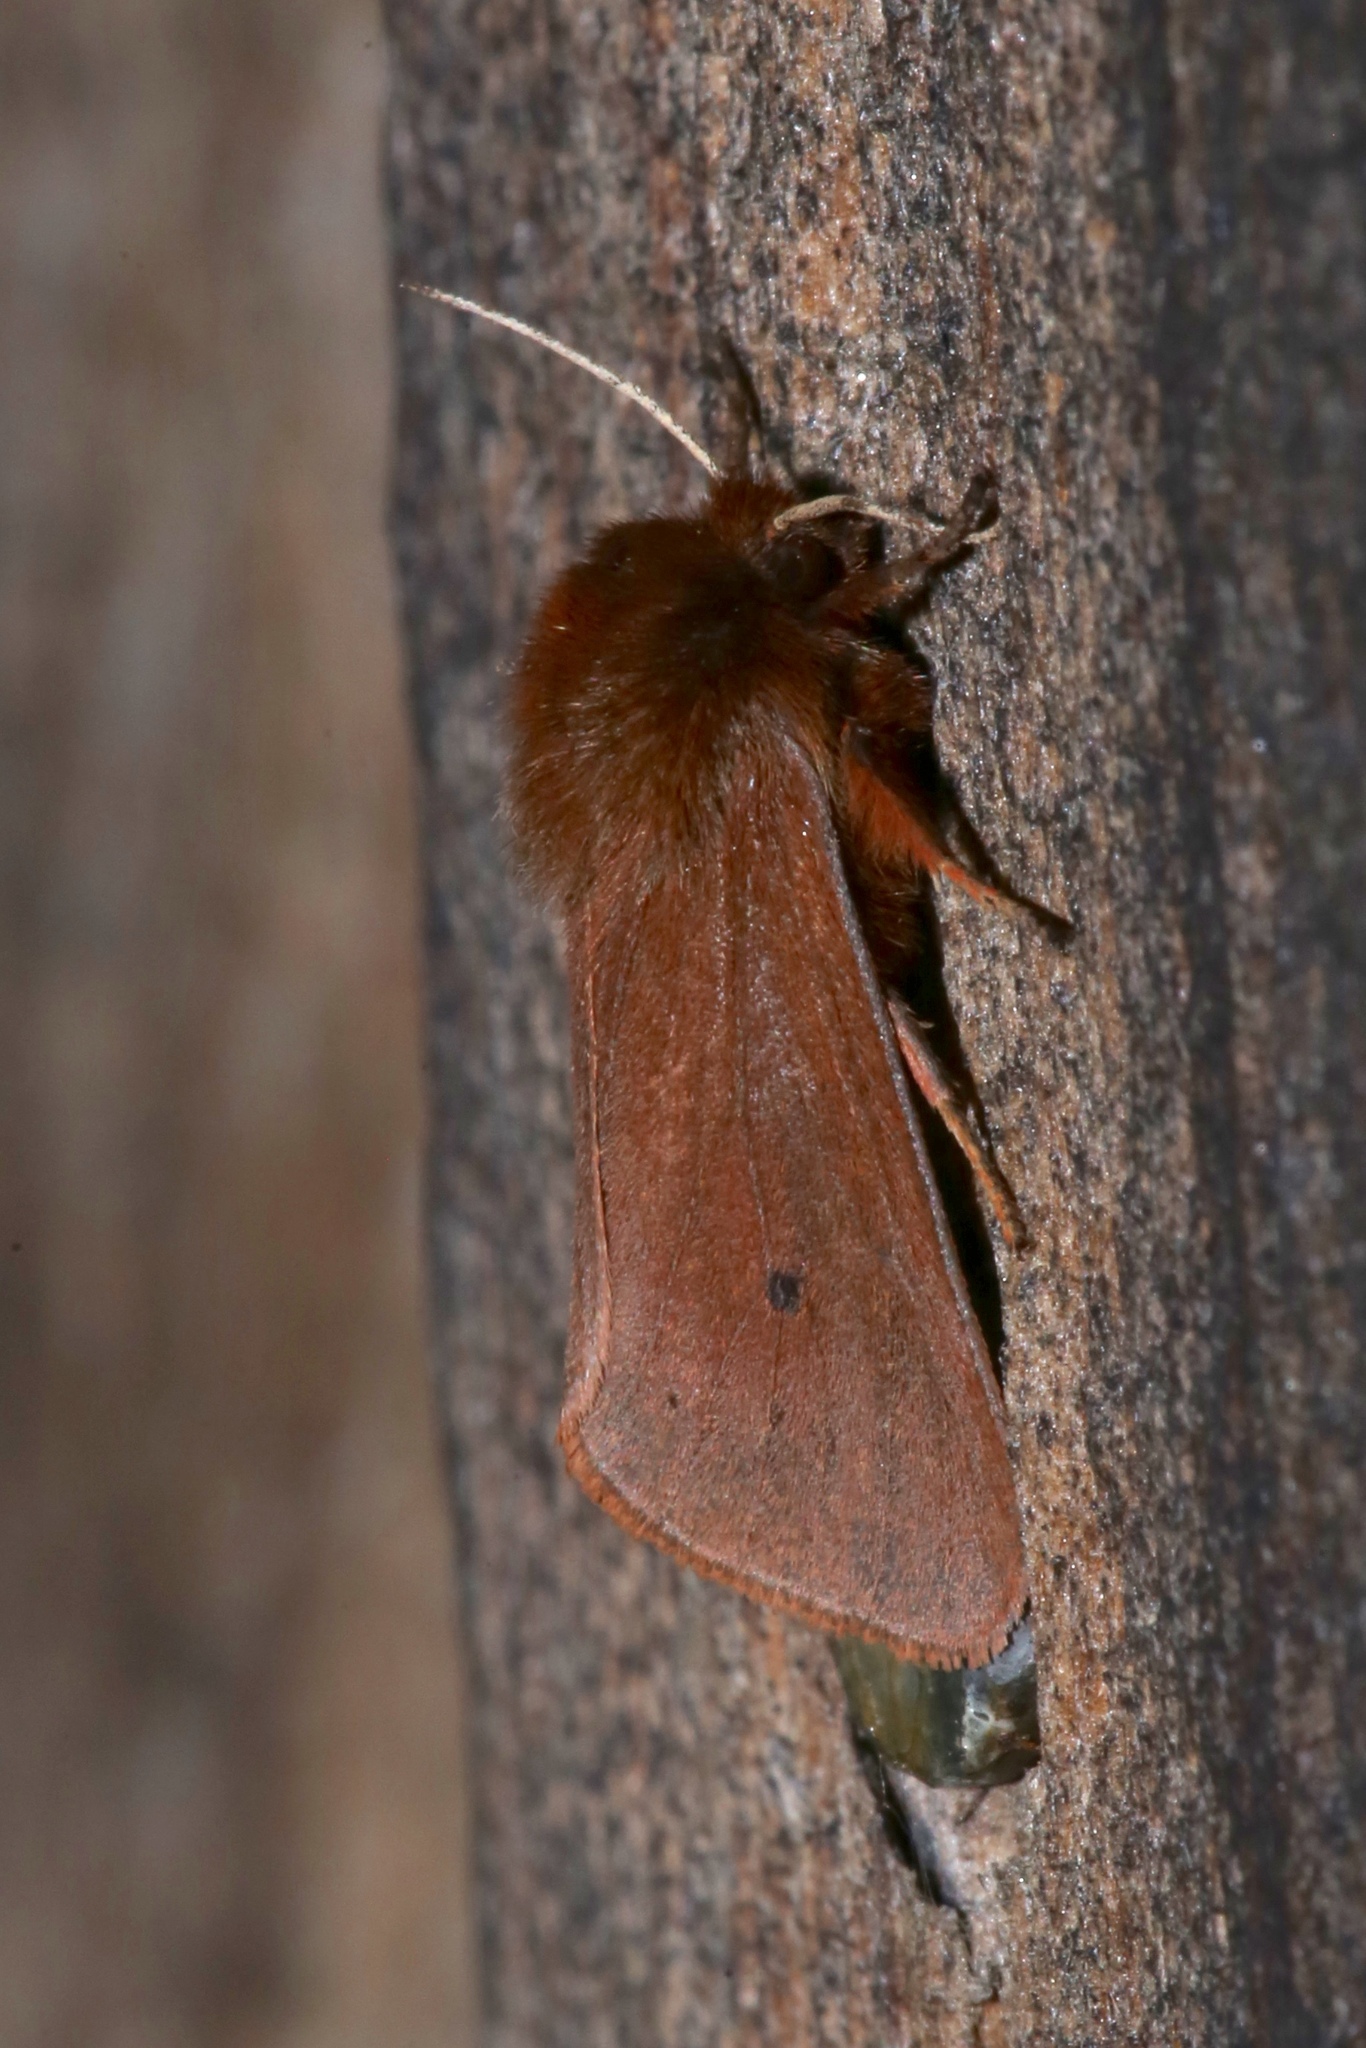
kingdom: Animalia
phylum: Arthropoda
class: Insecta
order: Lepidoptera
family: Erebidae
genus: Phragmatobia
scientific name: Phragmatobia fuliginosa
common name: Ruby tiger
